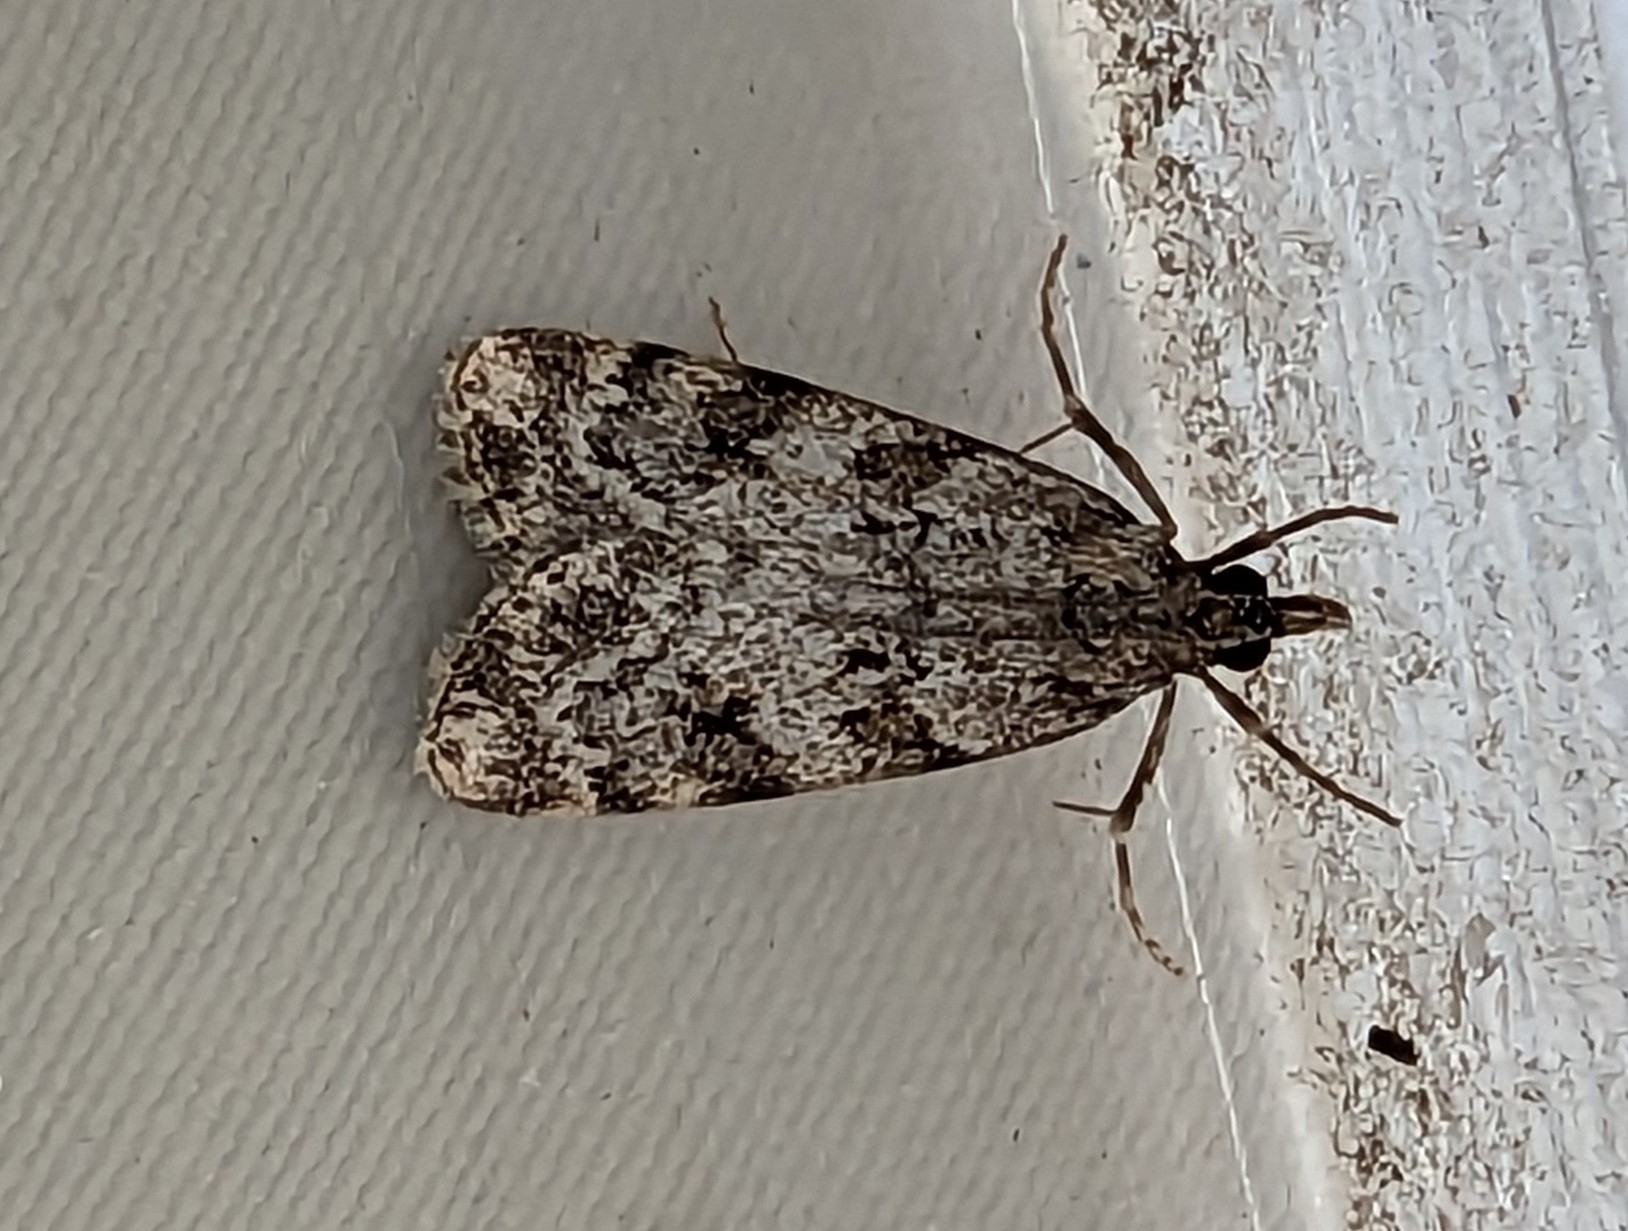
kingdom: Animalia
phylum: Arthropoda
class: Insecta
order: Lepidoptera
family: Crambidae
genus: Scoparia
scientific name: Scoparia ambigualis
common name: Common grey
